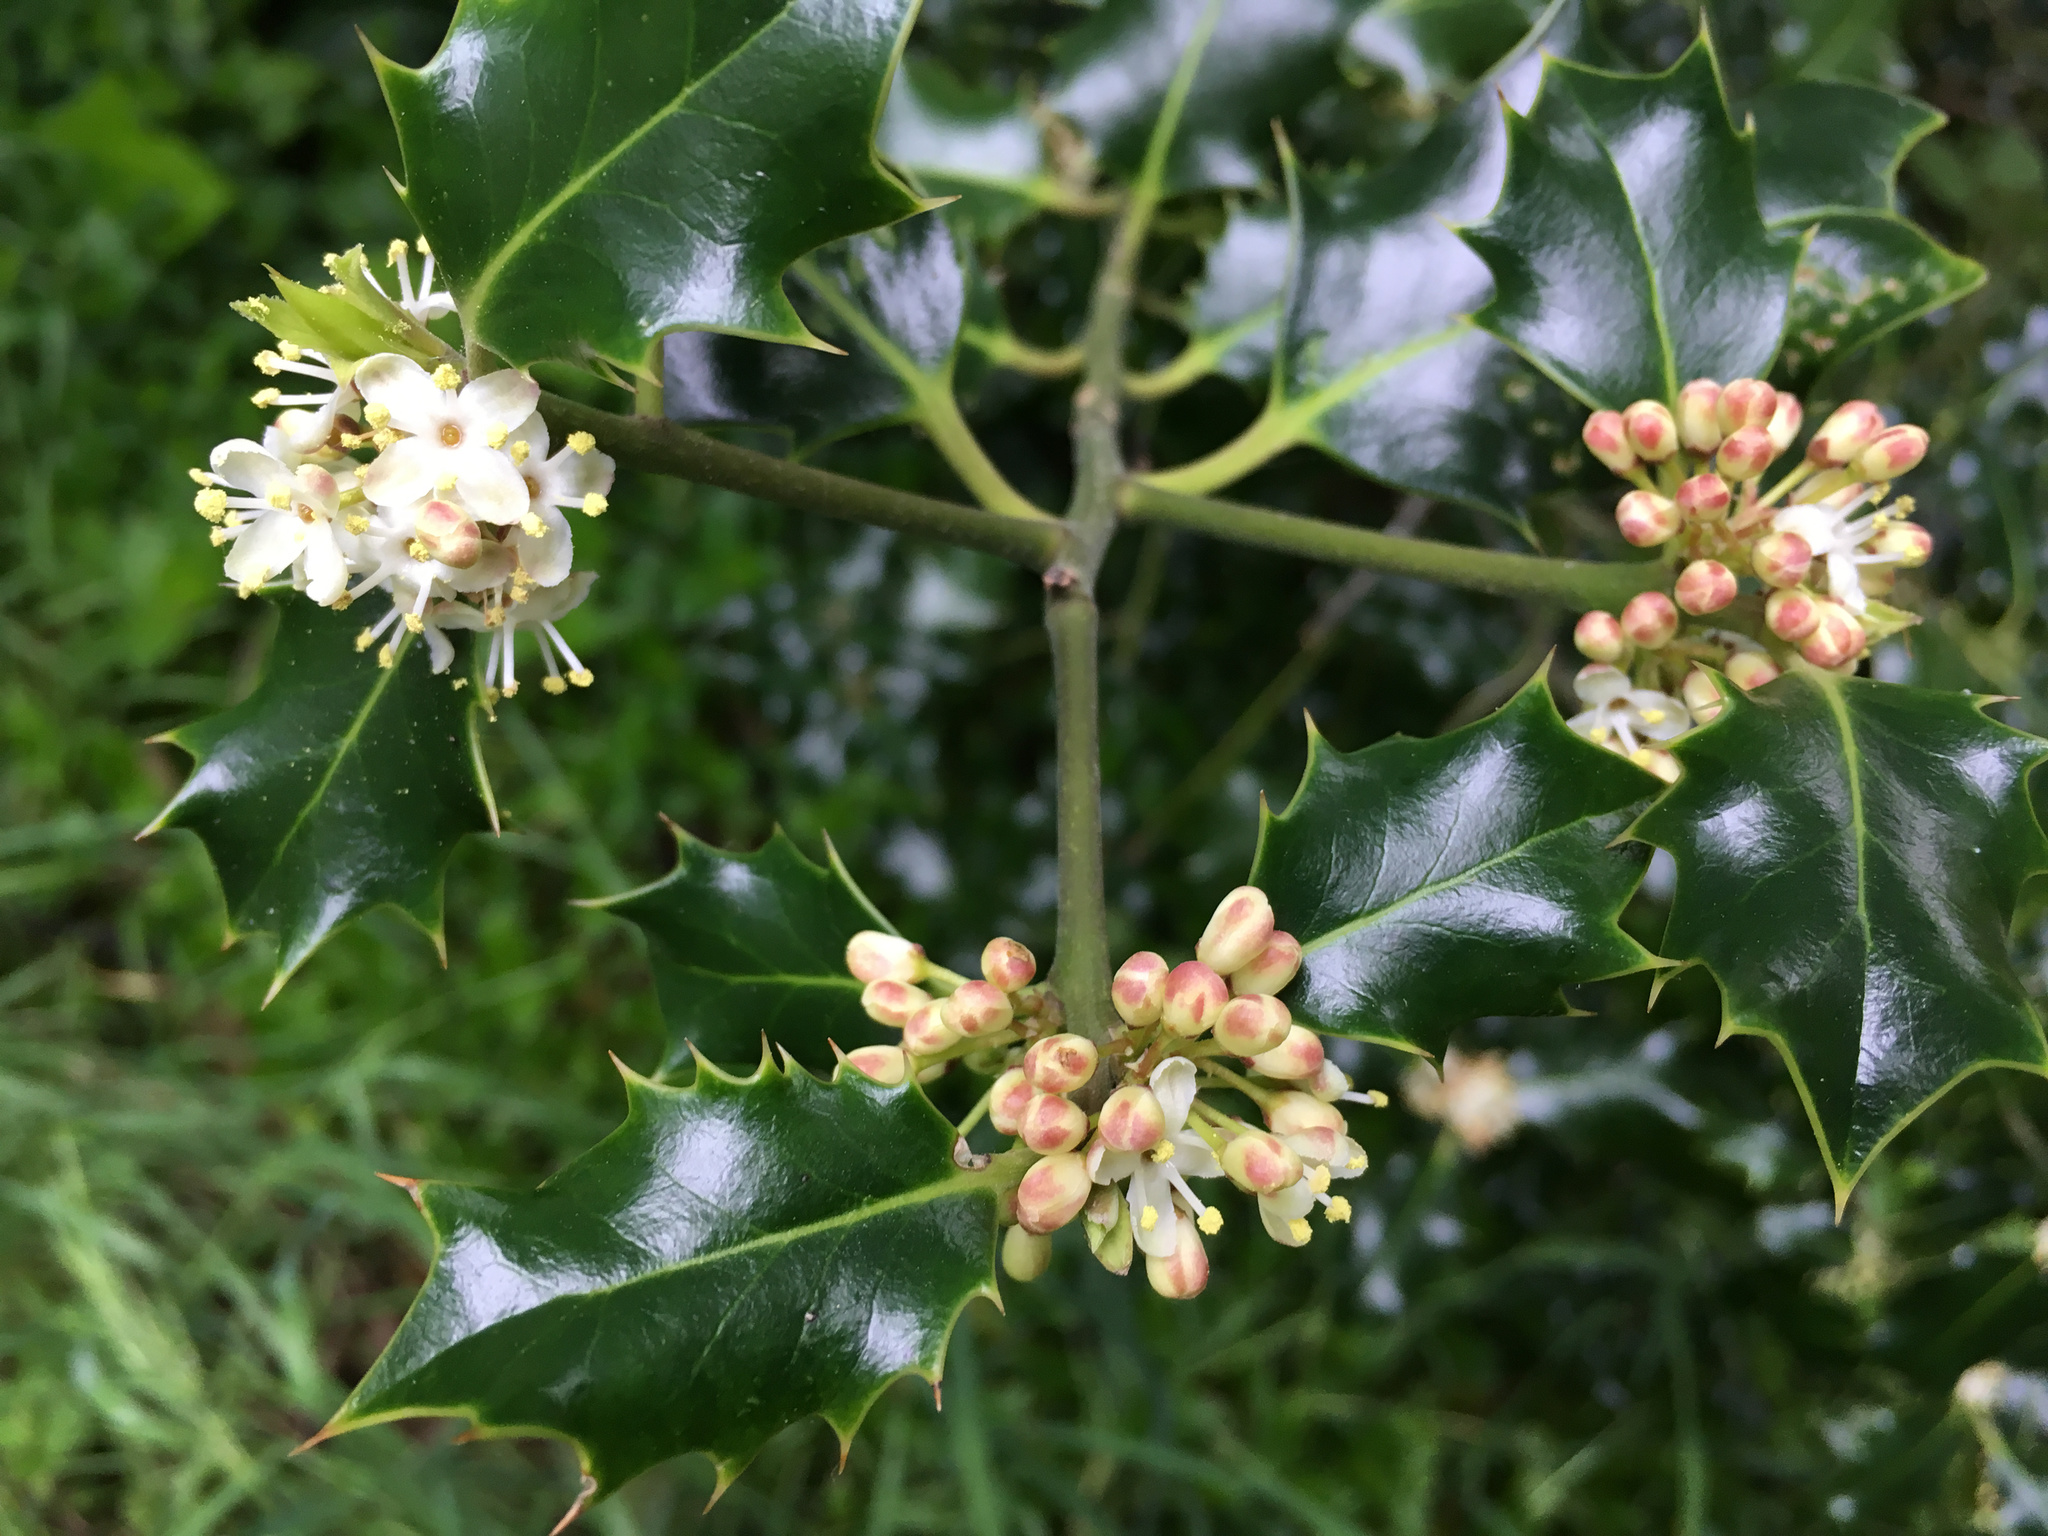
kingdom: Plantae
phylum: Tracheophyta
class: Magnoliopsida
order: Aquifoliales
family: Aquifoliaceae
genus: Ilex
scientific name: Ilex aquifolium
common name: English holly
